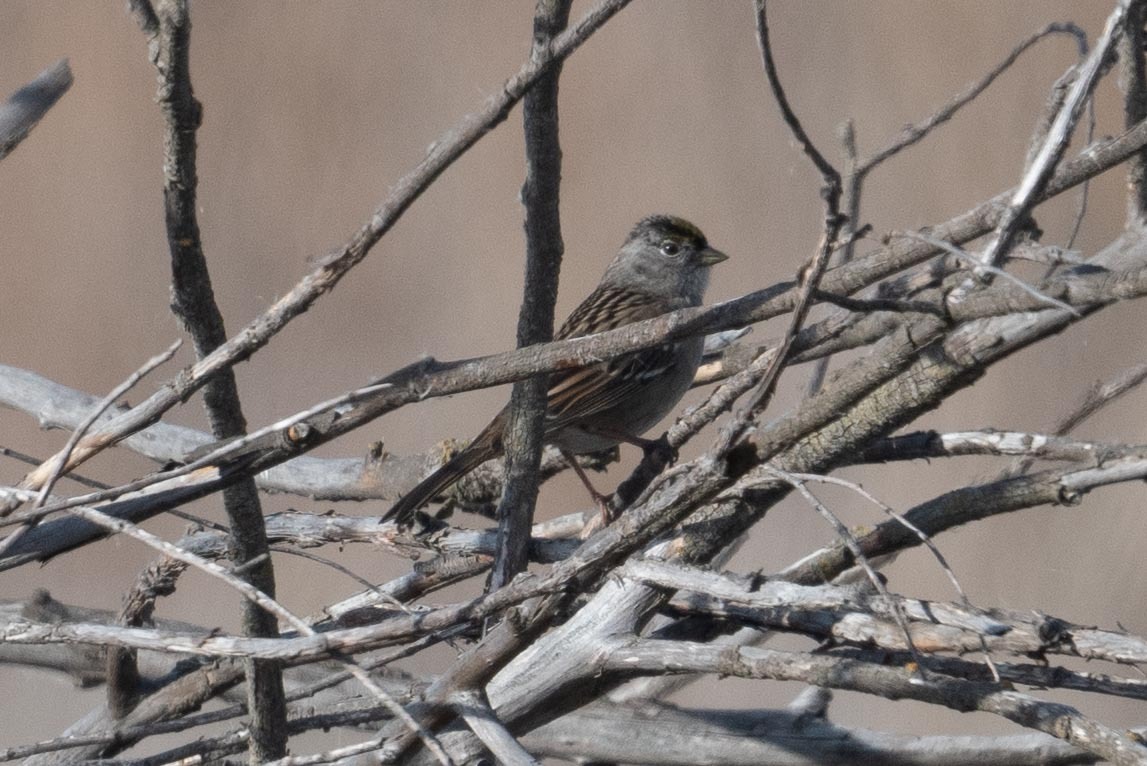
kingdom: Animalia
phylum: Chordata
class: Aves
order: Passeriformes
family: Passerellidae
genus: Zonotrichia
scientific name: Zonotrichia atricapilla
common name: Golden-crowned sparrow
